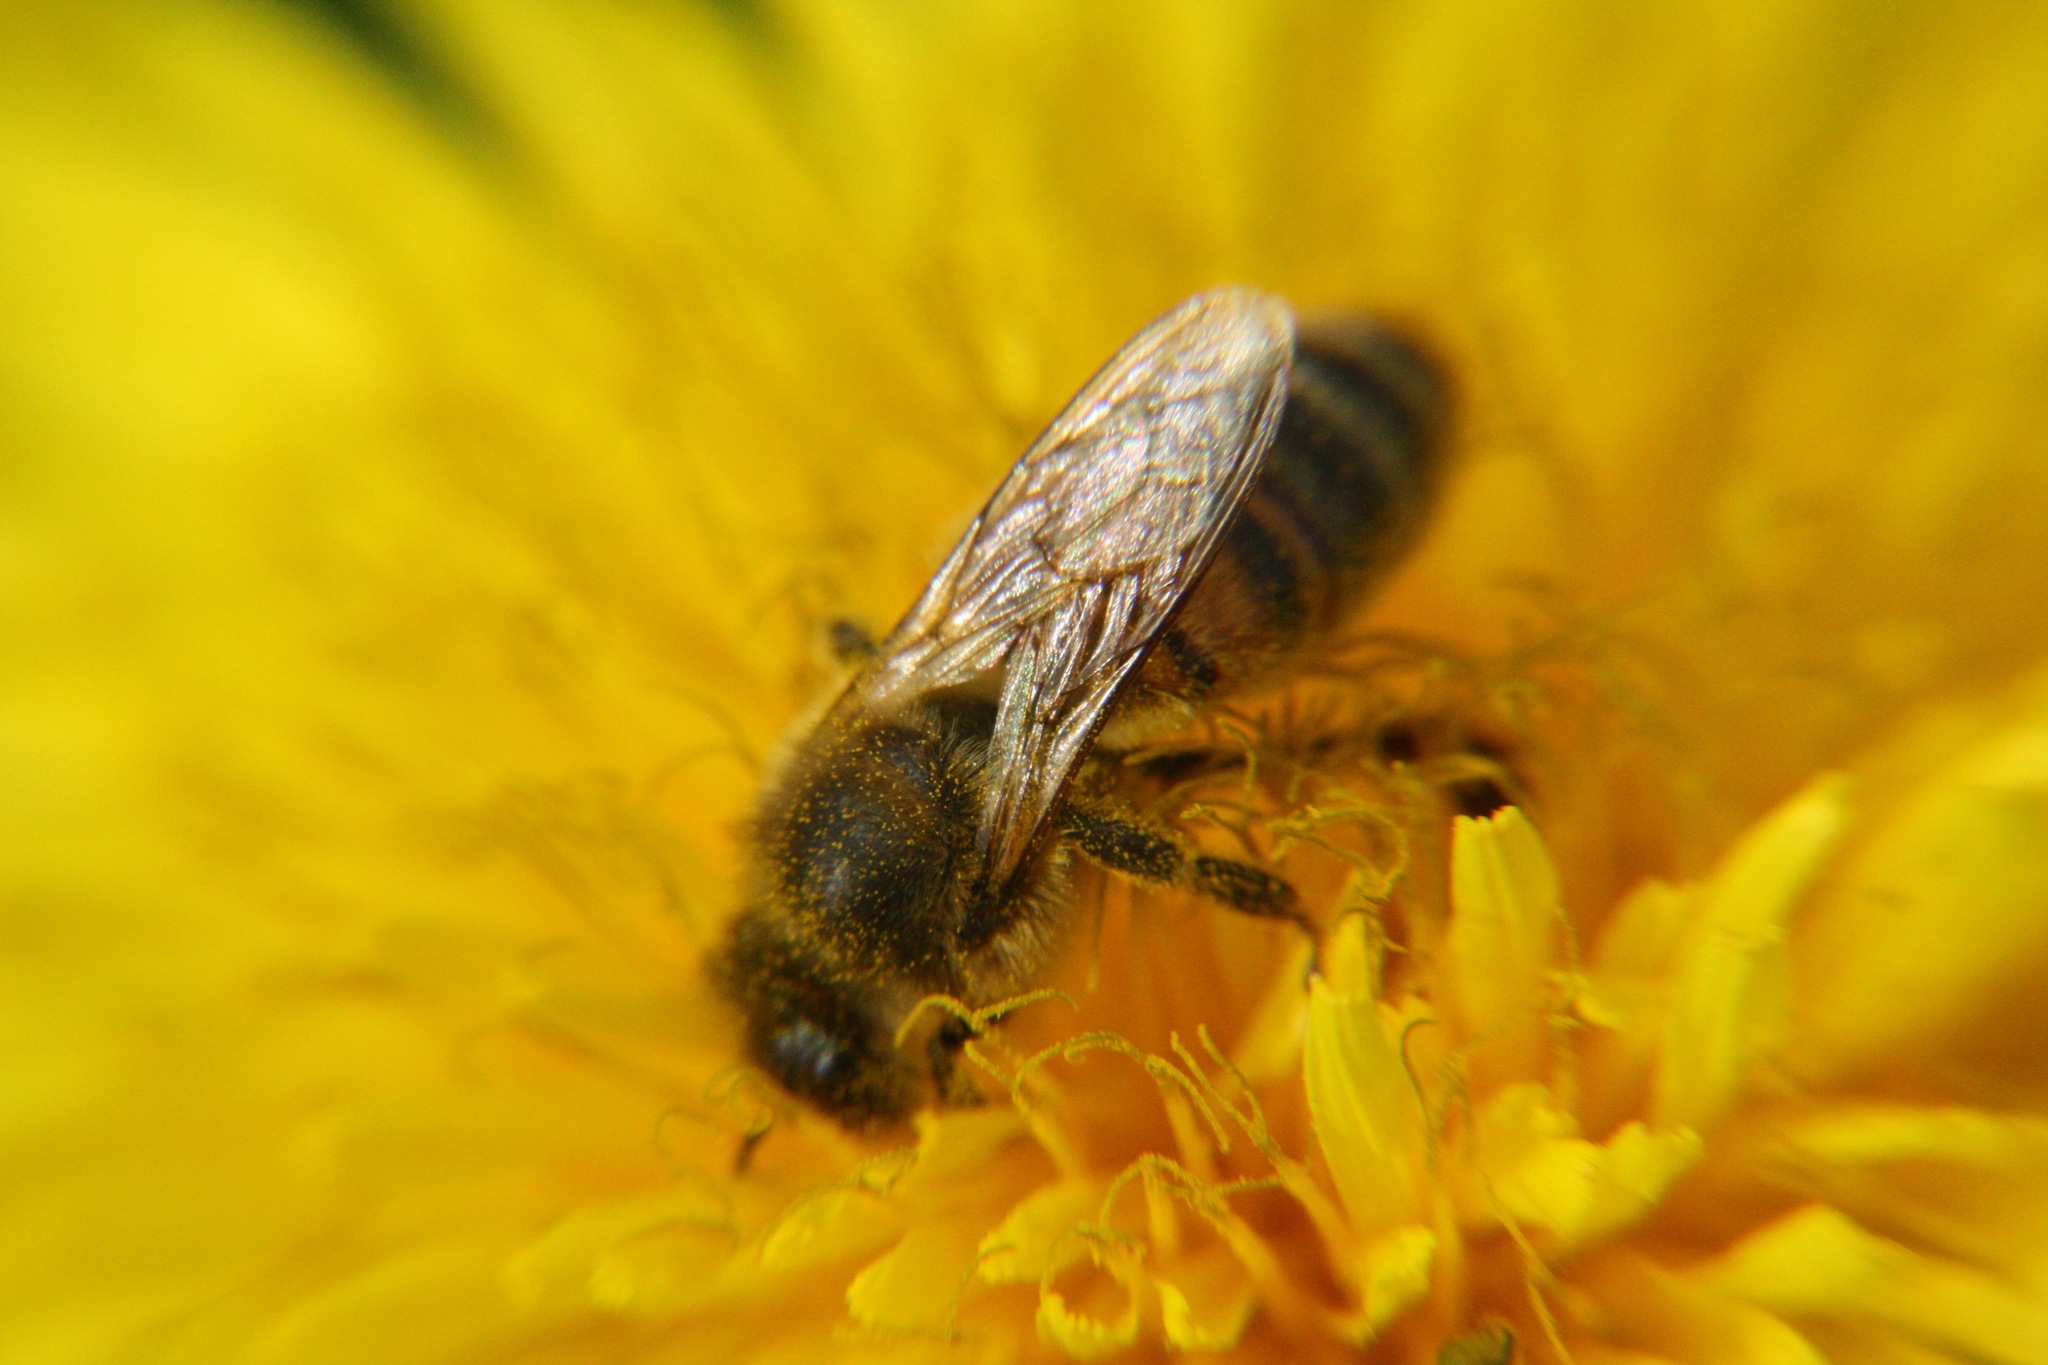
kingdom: Animalia
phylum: Arthropoda
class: Insecta
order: Hymenoptera
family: Apidae
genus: Apis
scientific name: Apis mellifera
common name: Honey bee
